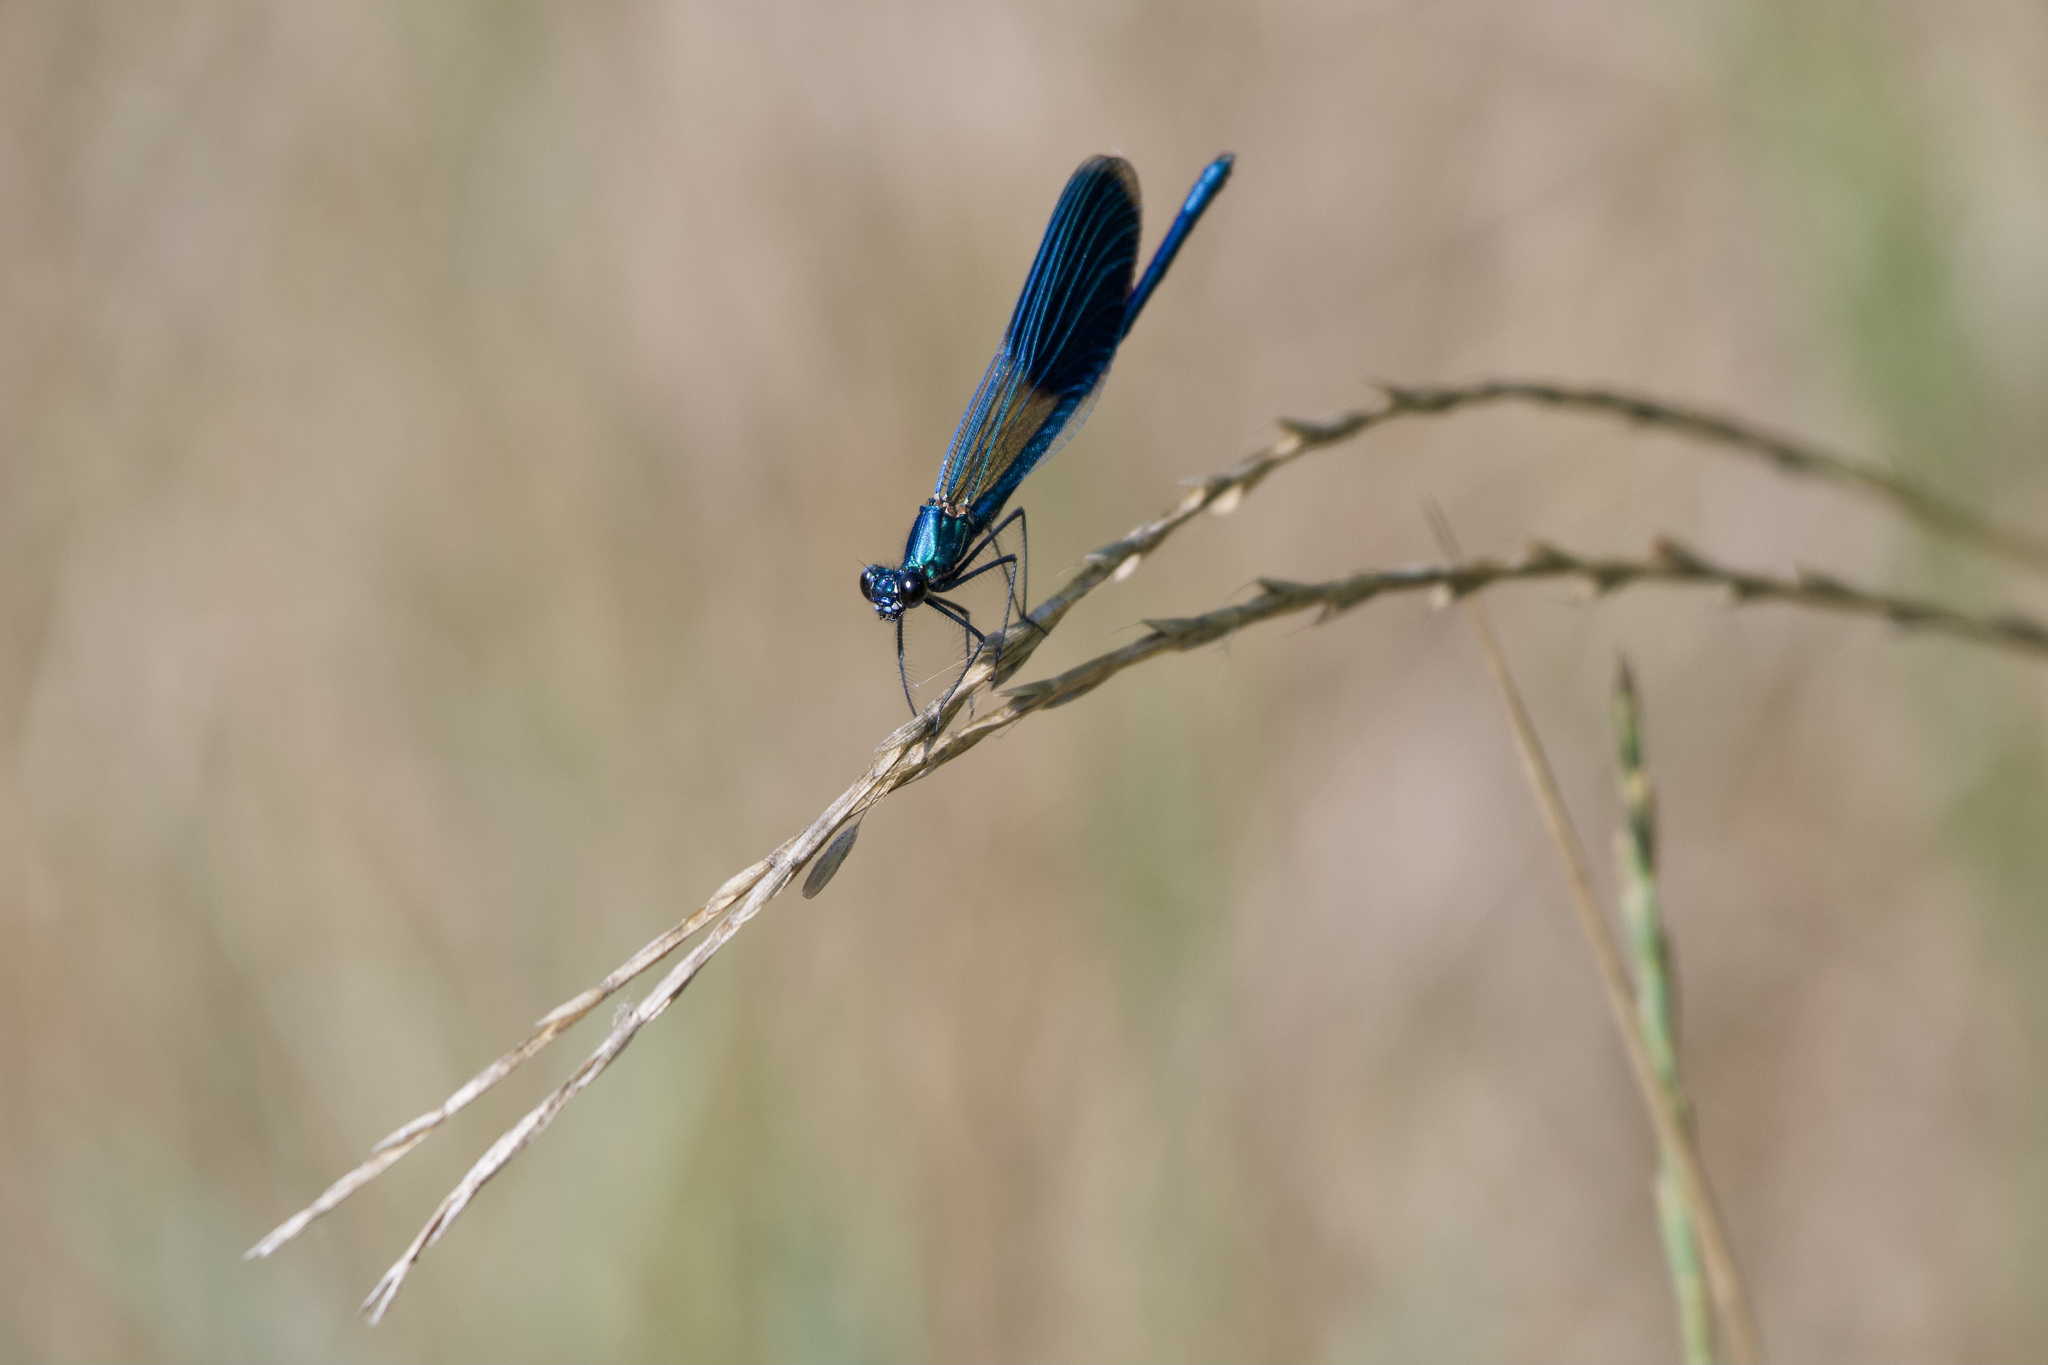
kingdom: Animalia
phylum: Arthropoda
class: Insecta
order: Odonata
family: Calopterygidae
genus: Calopteryx
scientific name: Calopteryx splendens
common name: Banded demoiselle
